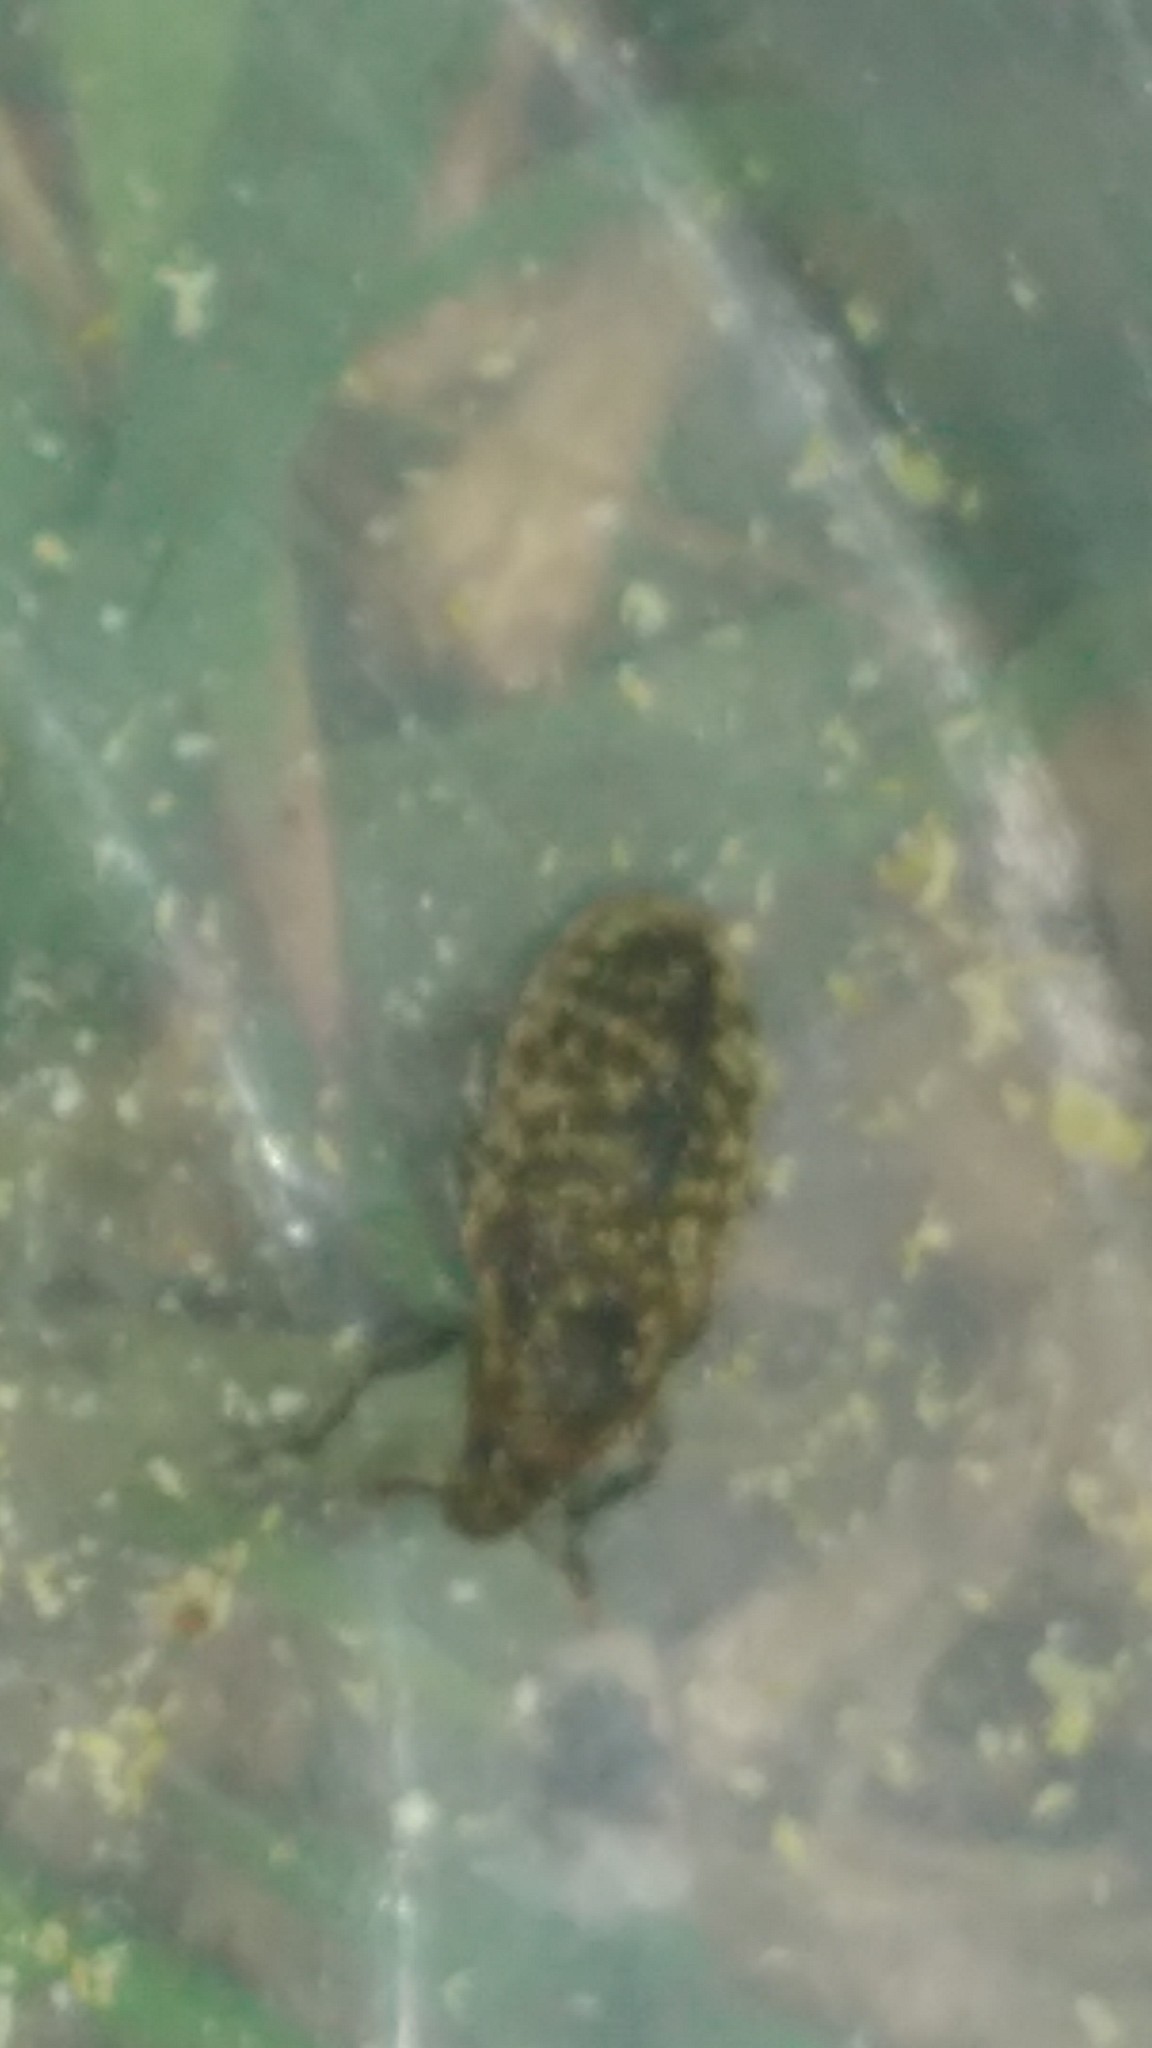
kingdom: Animalia
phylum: Arthropoda
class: Insecta
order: Coleoptera
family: Curculionidae
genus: Rhinocyllus
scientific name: Rhinocyllus conicus
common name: Weevil
